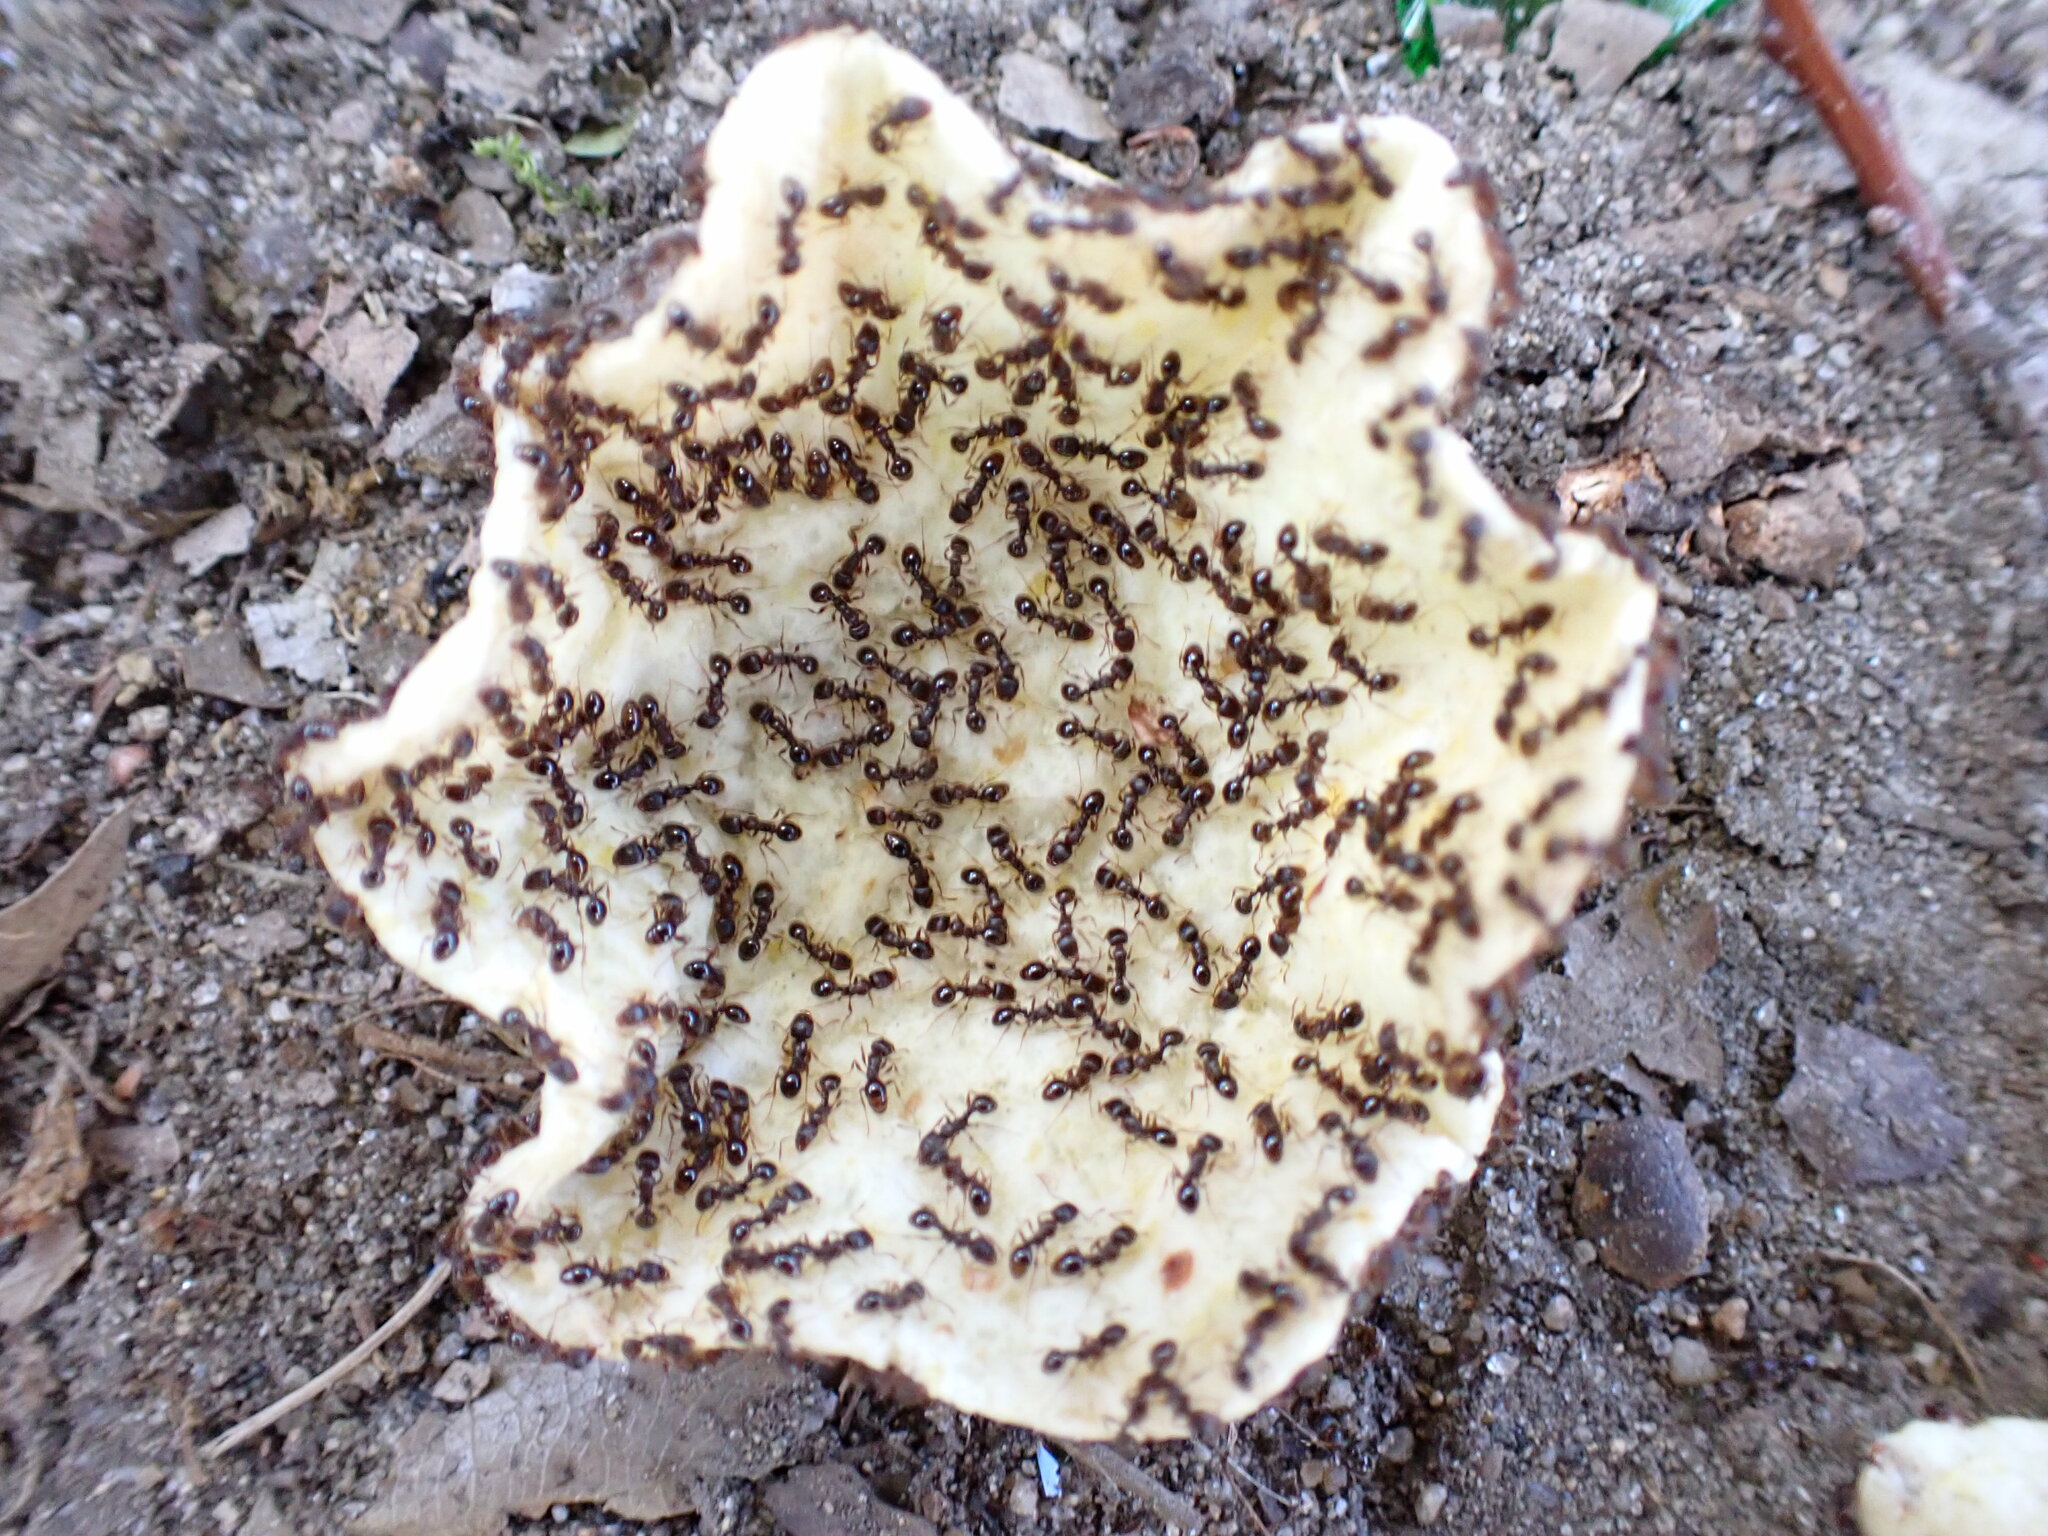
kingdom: Animalia
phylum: Arthropoda
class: Insecta
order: Hymenoptera
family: Formicidae
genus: Tetramorium
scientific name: Tetramorium immigrans
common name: Pavement ant
